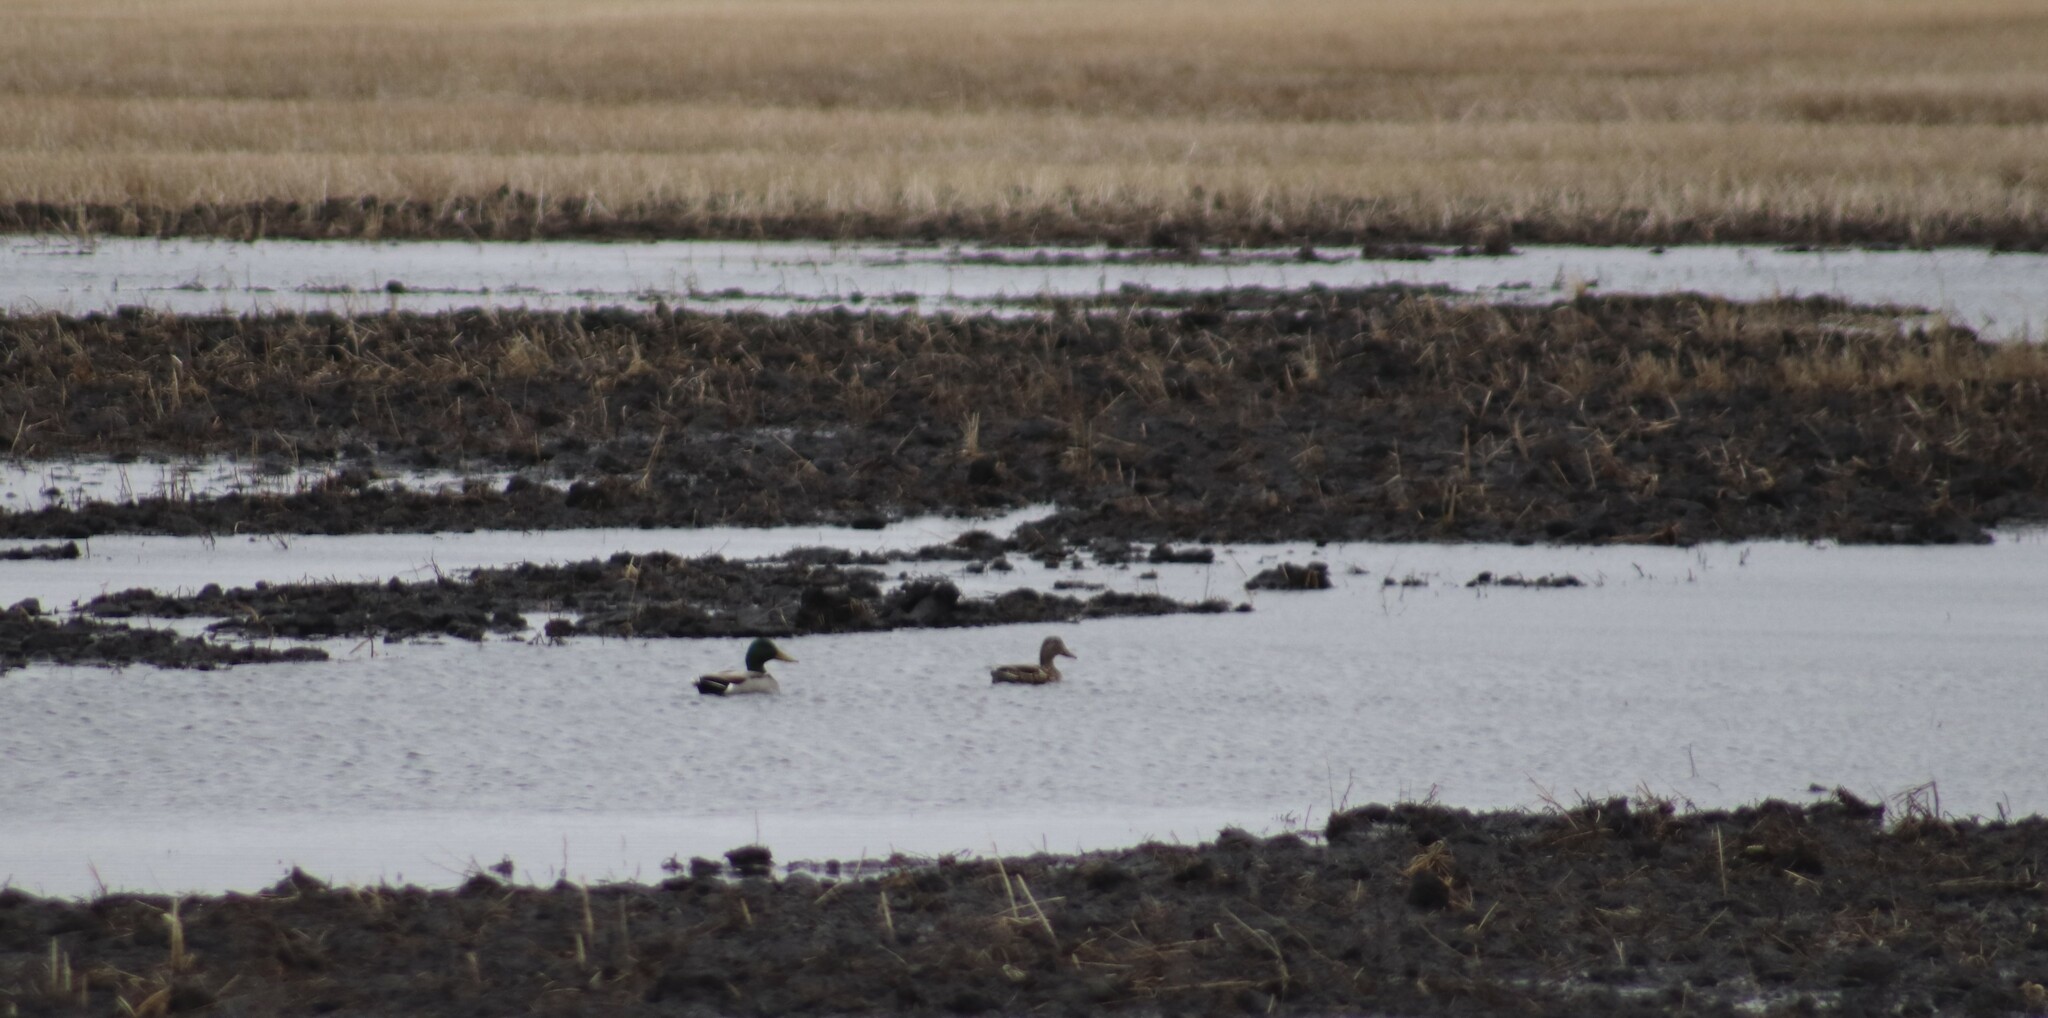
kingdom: Animalia
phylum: Chordata
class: Aves
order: Anseriformes
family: Anatidae
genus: Anas
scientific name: Anas platyrhynchos
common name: Mallard
